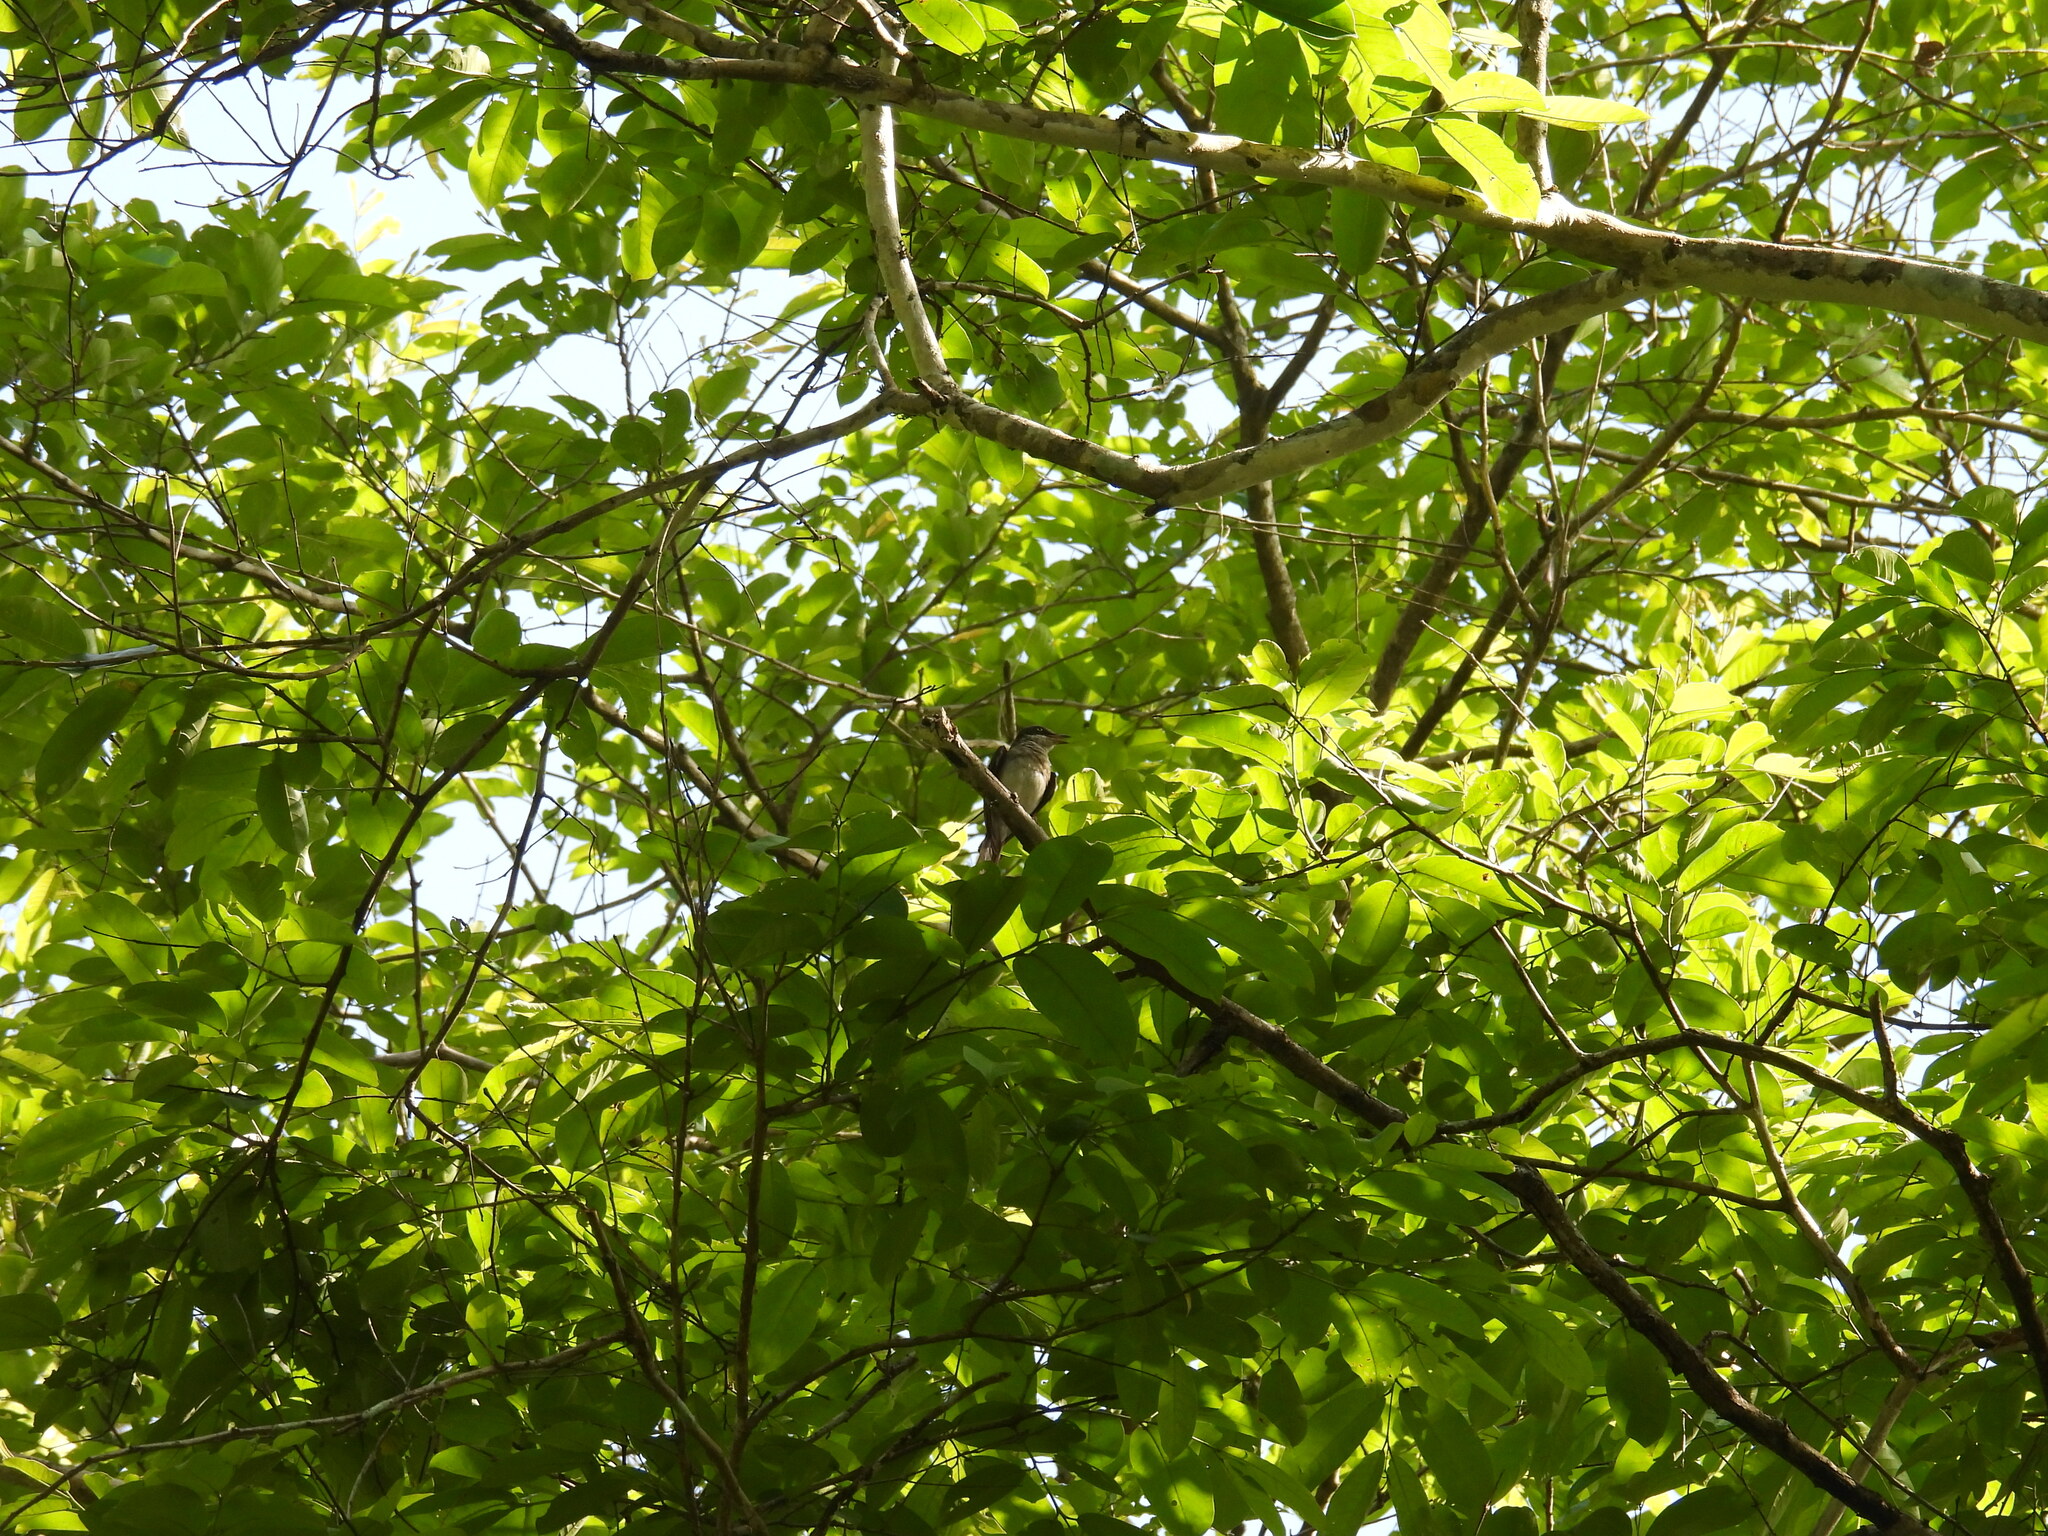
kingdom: Animalia
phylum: Chordata
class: Aves
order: Passeriformes
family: Tephrodornithidae
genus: Tephrodornis
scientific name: Tephrodornis sylvicola
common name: Malabar woodshrike
